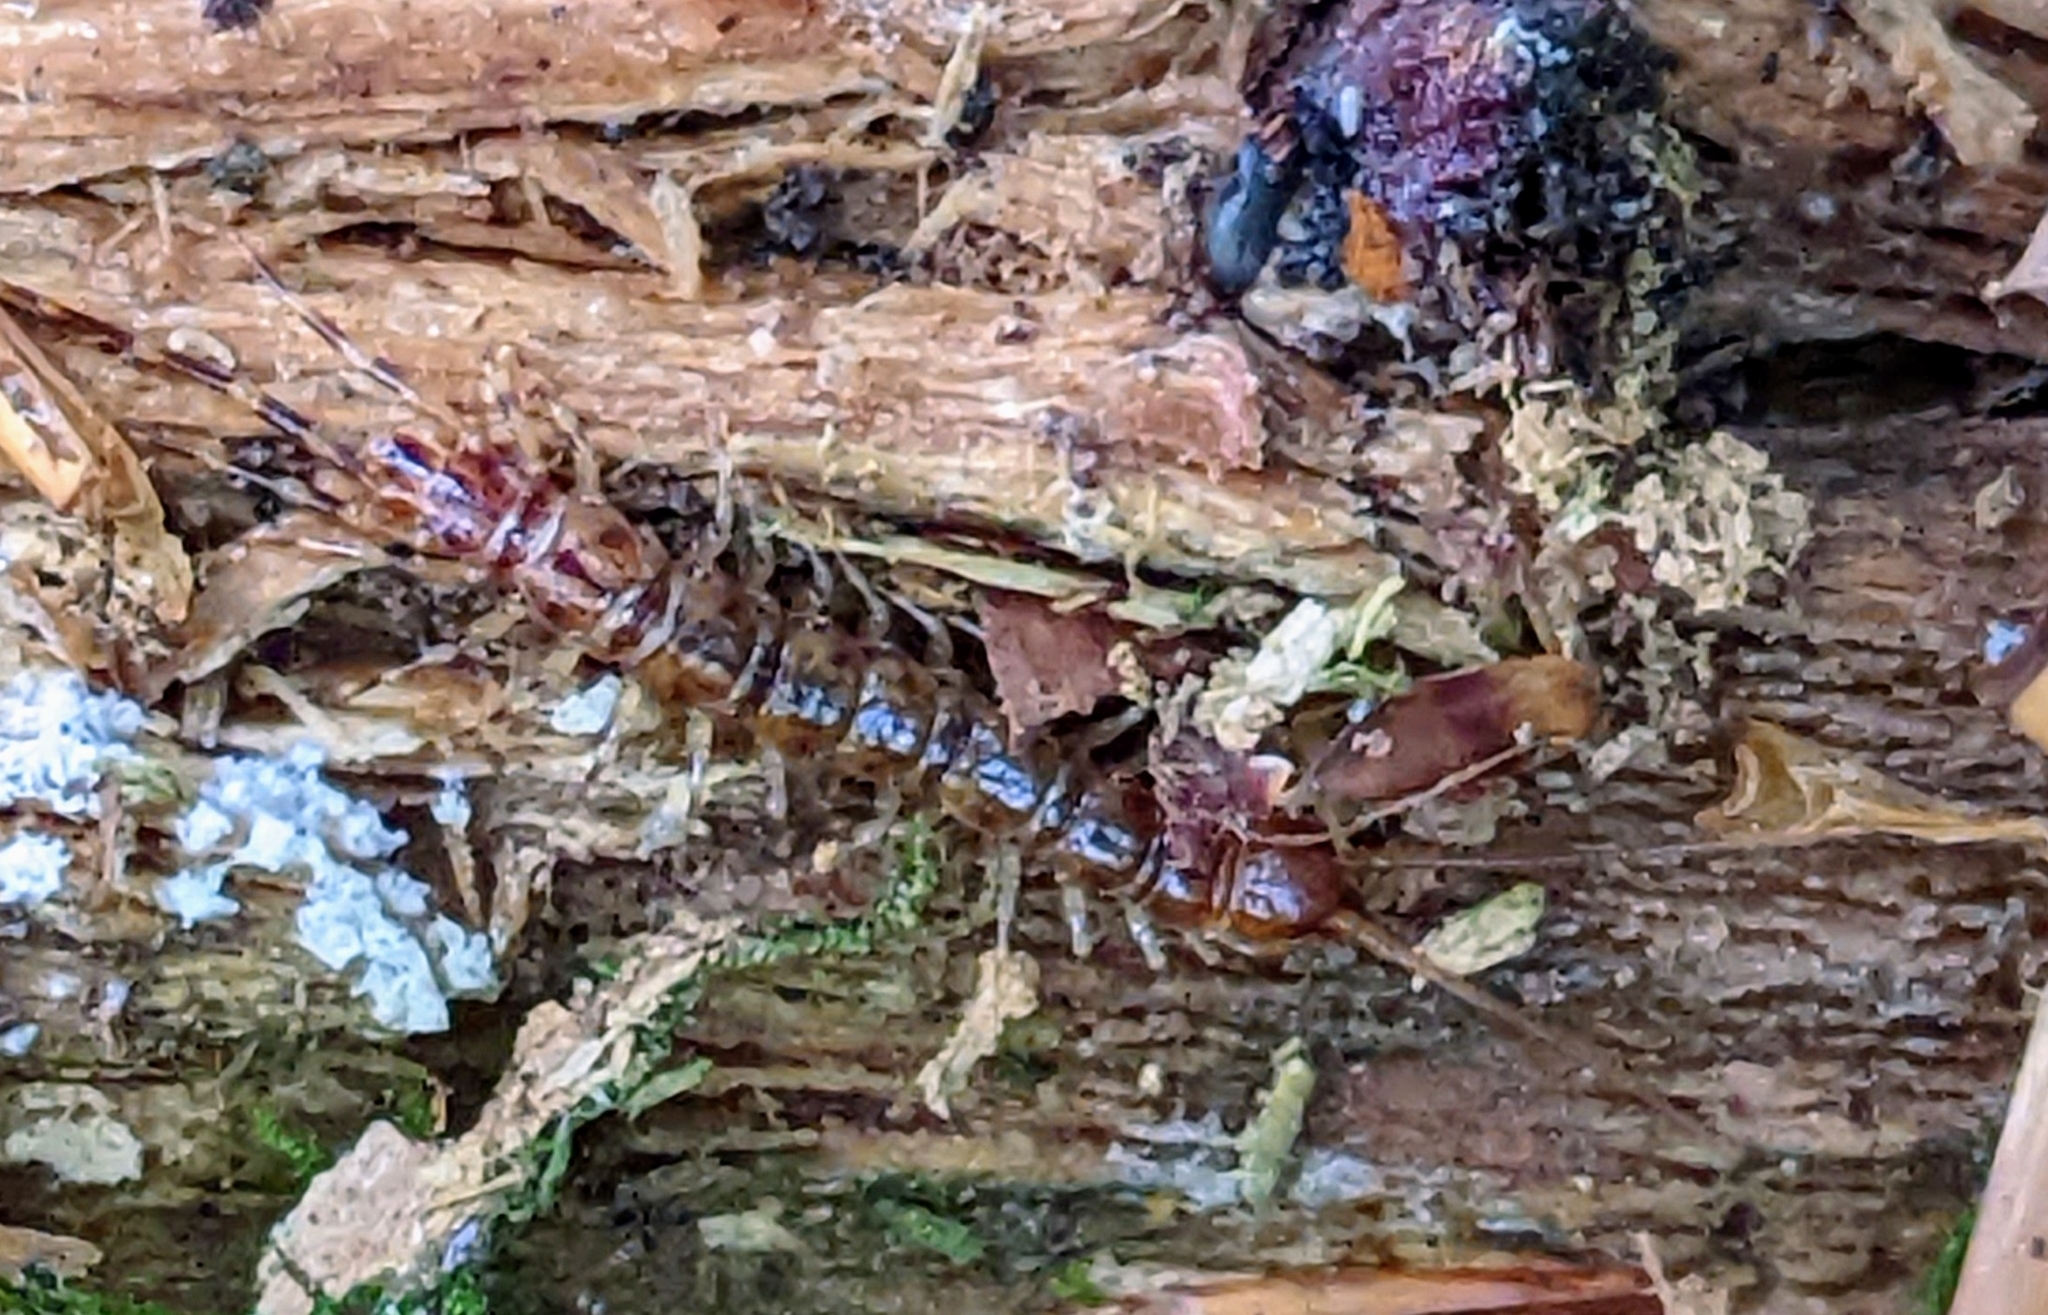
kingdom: Animalia
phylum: Arthropoda
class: Chilopoda
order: Lithobiomorpha
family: Lithobiidae
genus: Lithobius
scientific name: Lithobius variegatus
